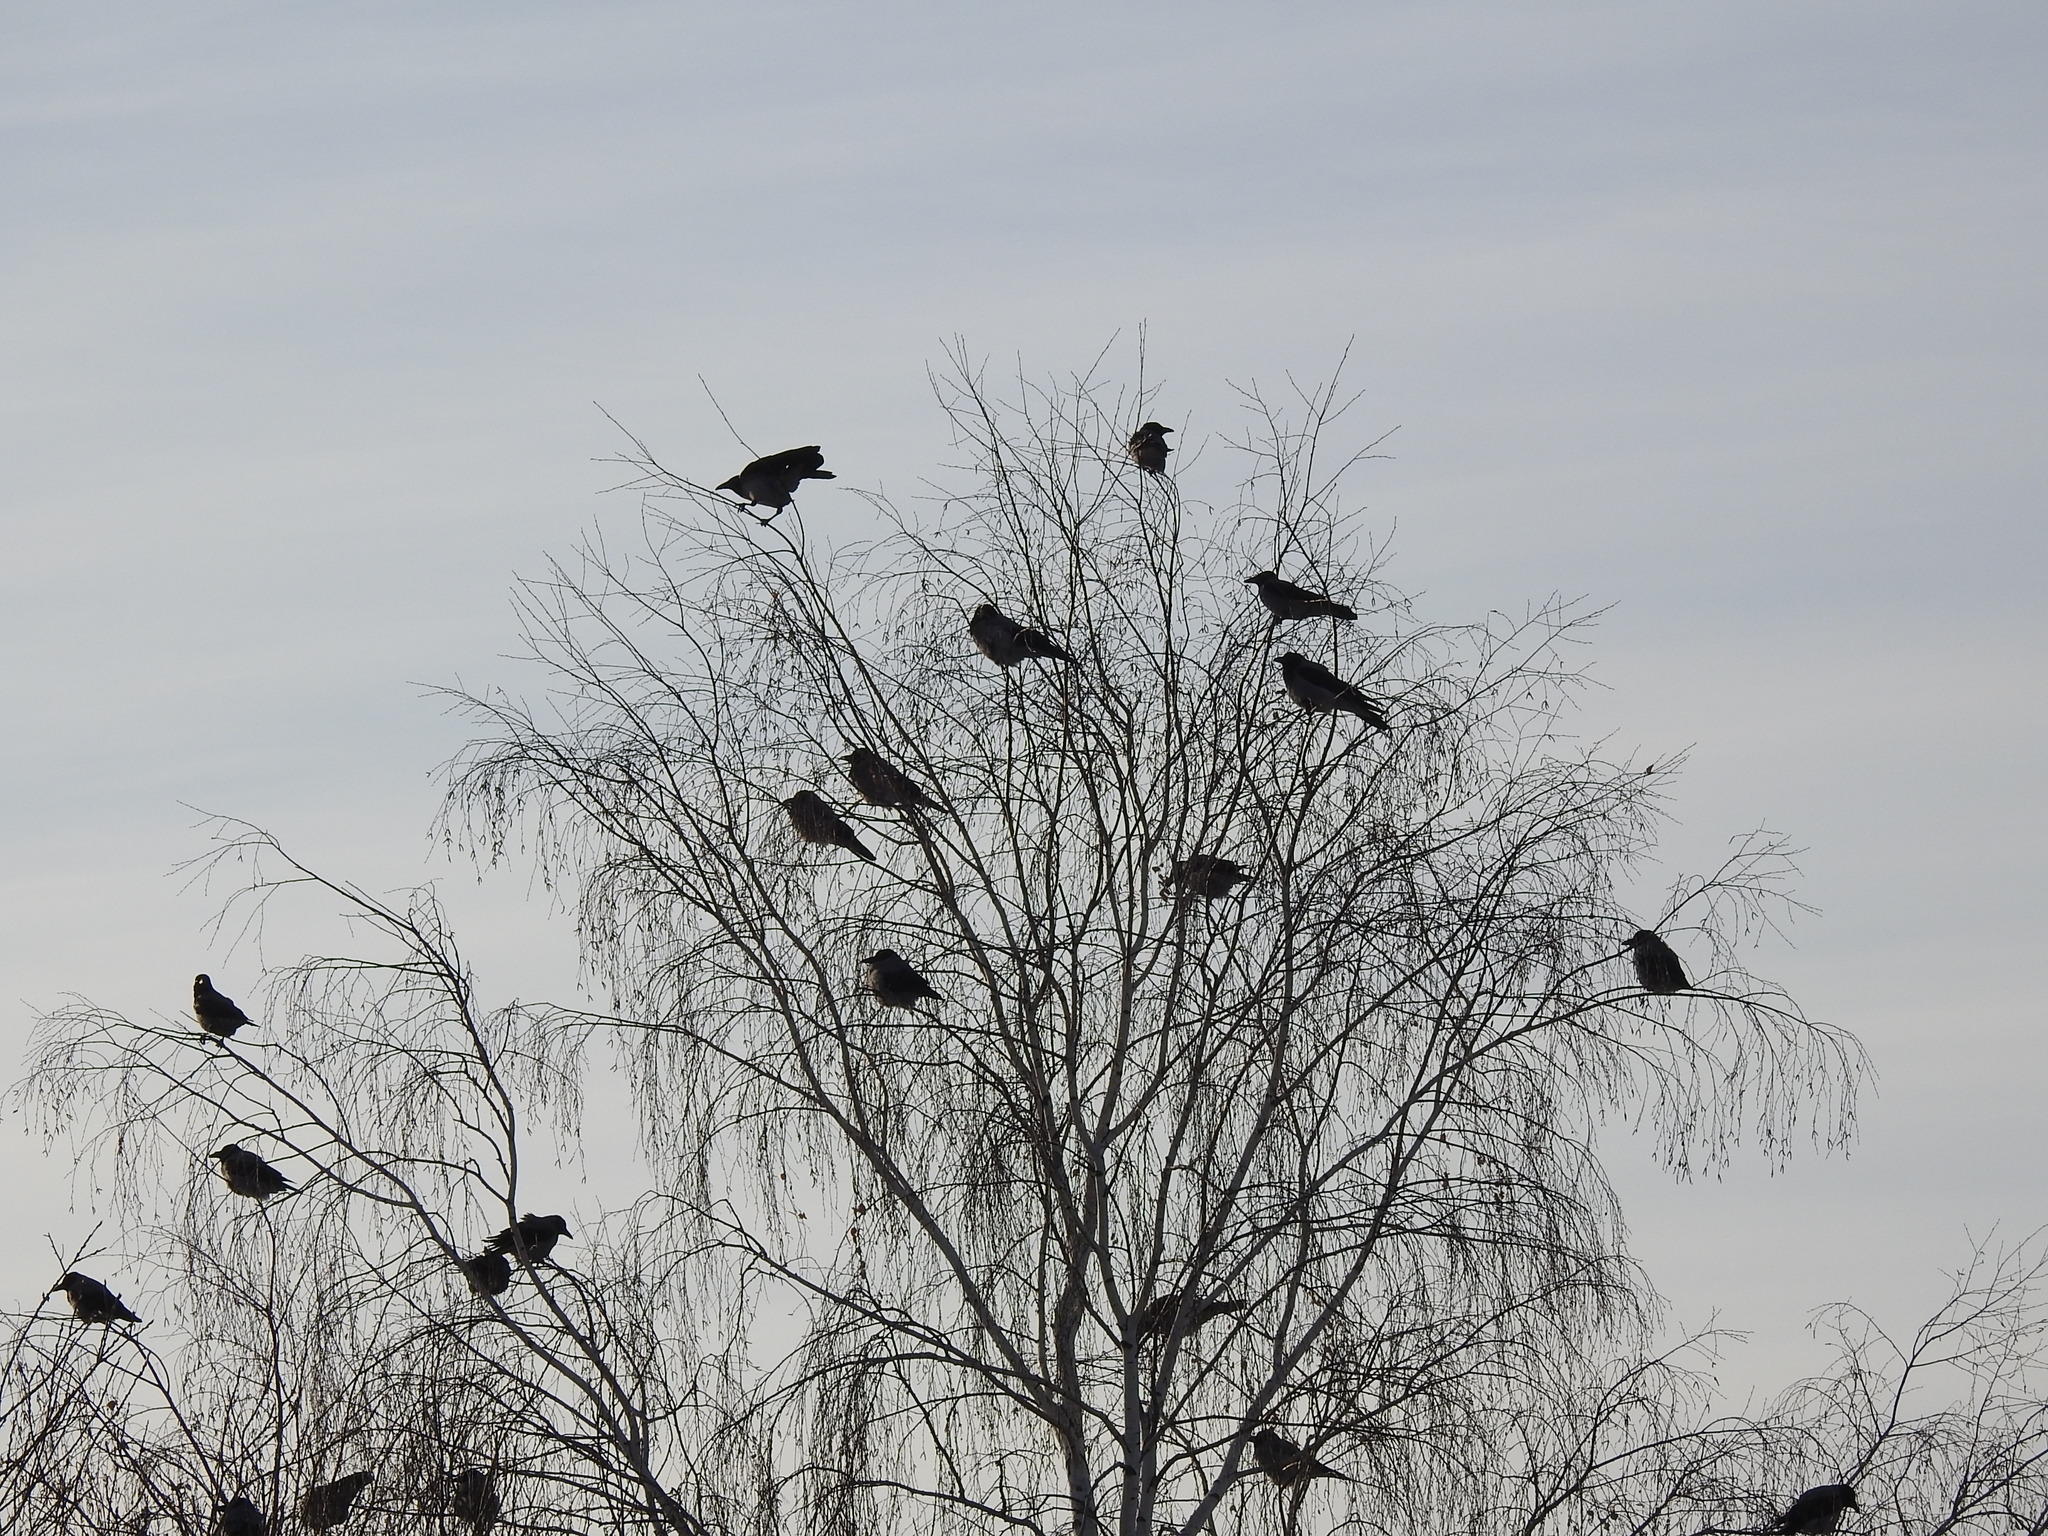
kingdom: Animalia
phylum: Chordata
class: Aves
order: Passeriformes
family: Corvidae
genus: Corvus
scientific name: Corvus cornix
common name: Hooded crow
